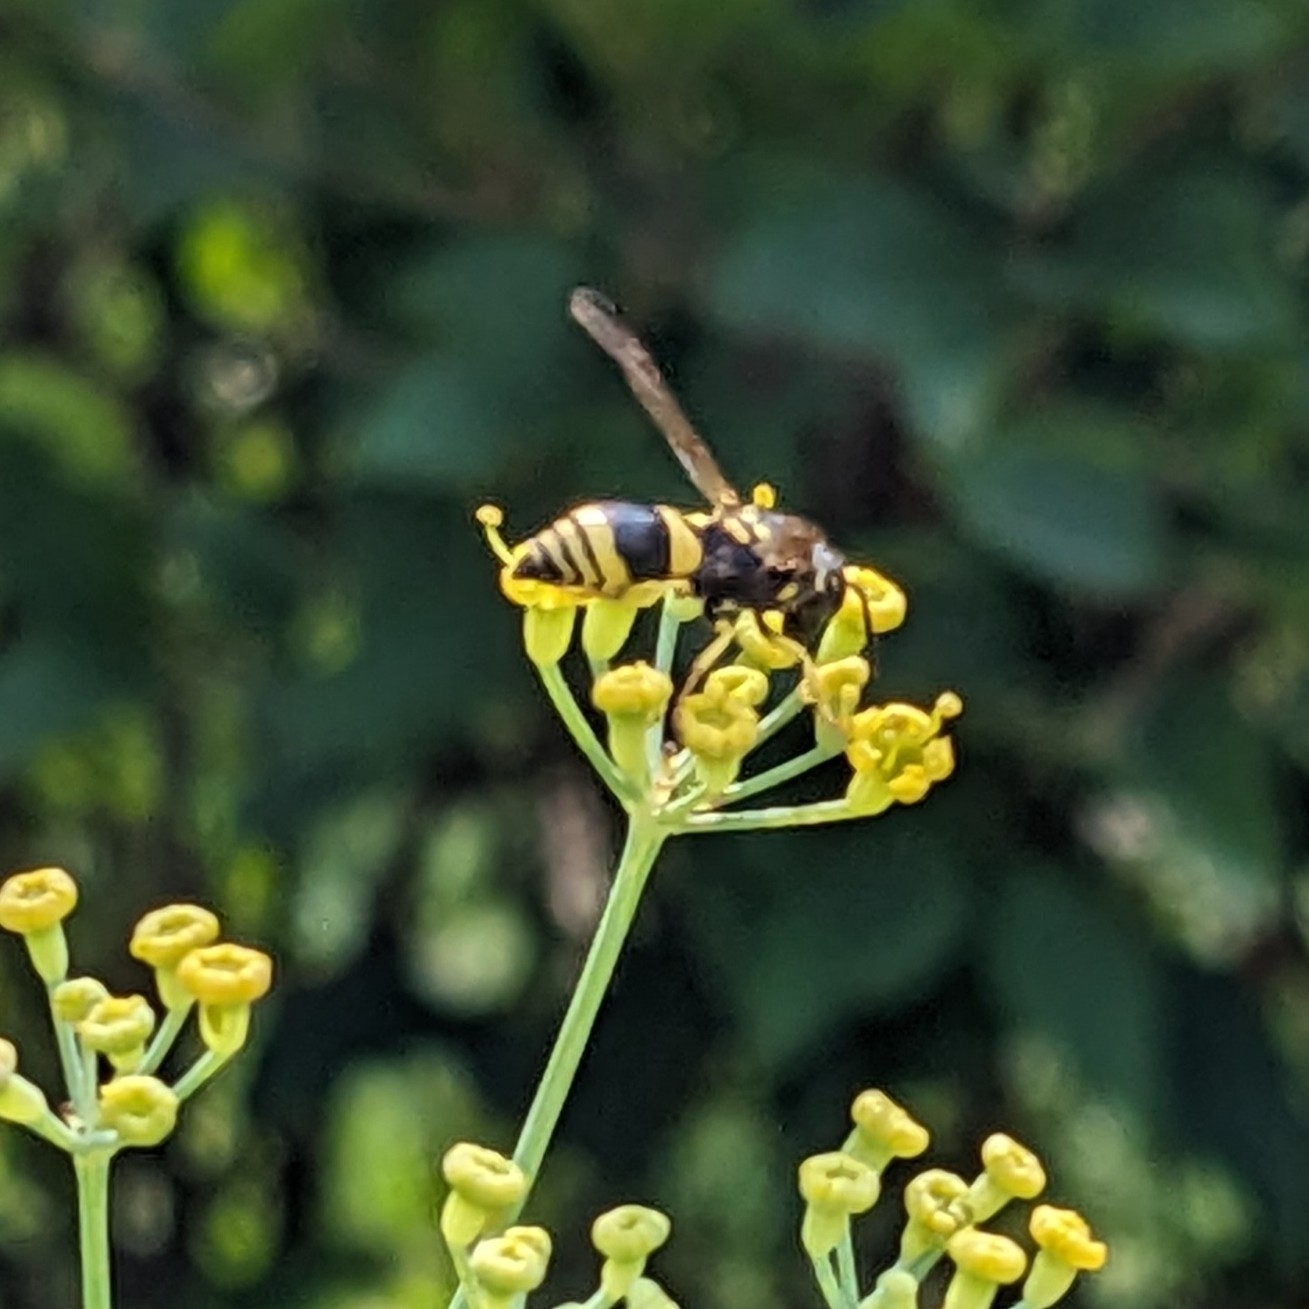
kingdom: Animalia
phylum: Arthropoda
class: Insecta
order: Hymenoptera
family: Vespidae
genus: Ancistrocerus
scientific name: Ancistrocerus gazella
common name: European tube wasp
